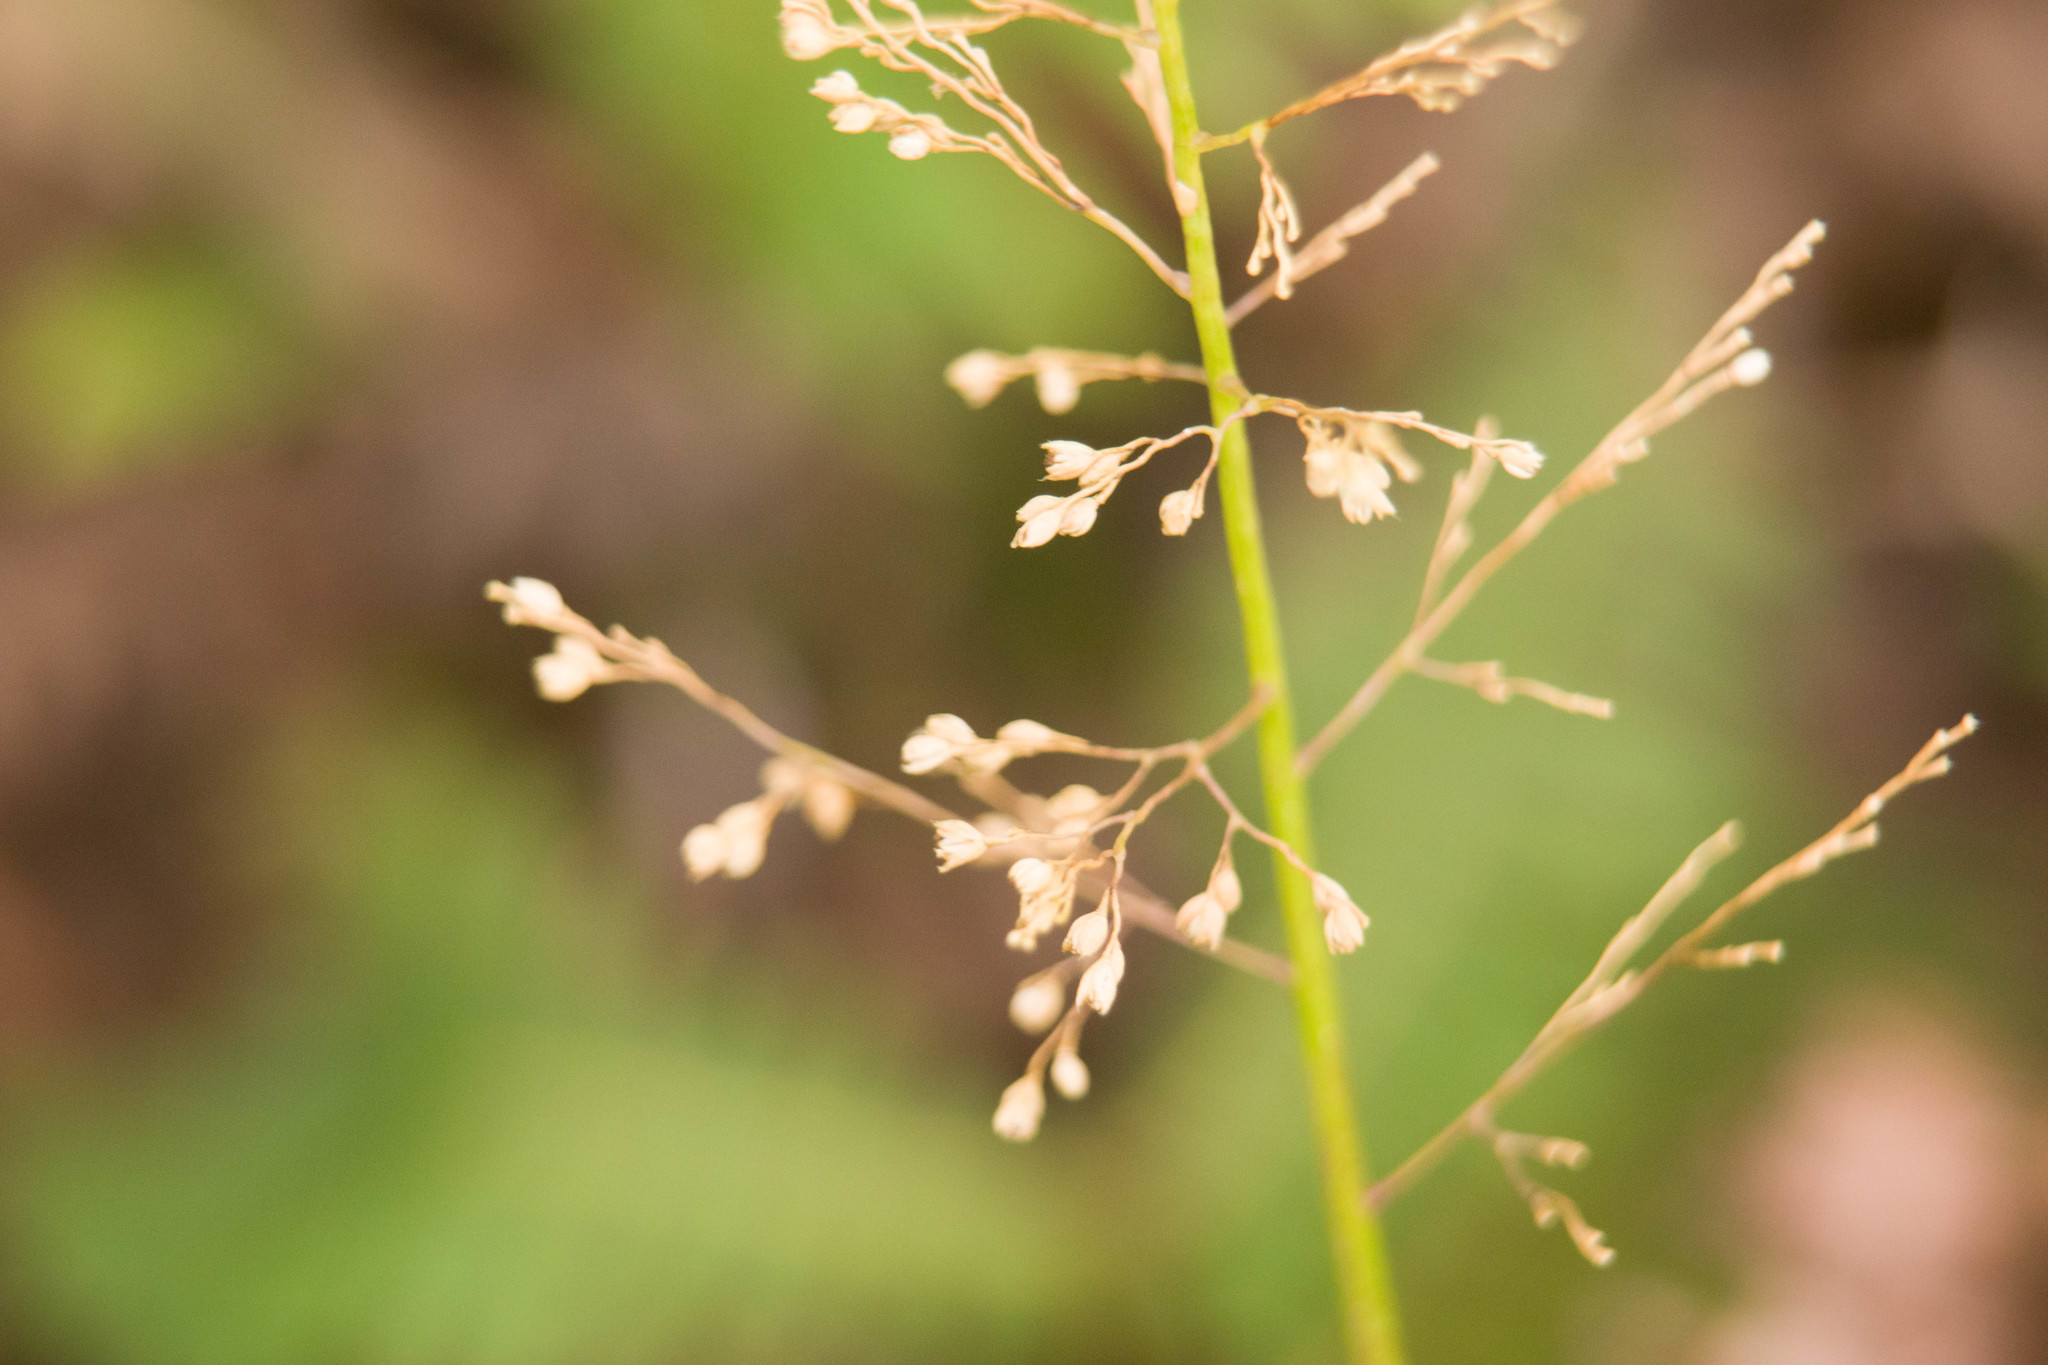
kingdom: Plantae
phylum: Tracheophyta
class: Liliopsida
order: Poales
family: Poaceae
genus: Isachne
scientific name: Isachne distichophylla
